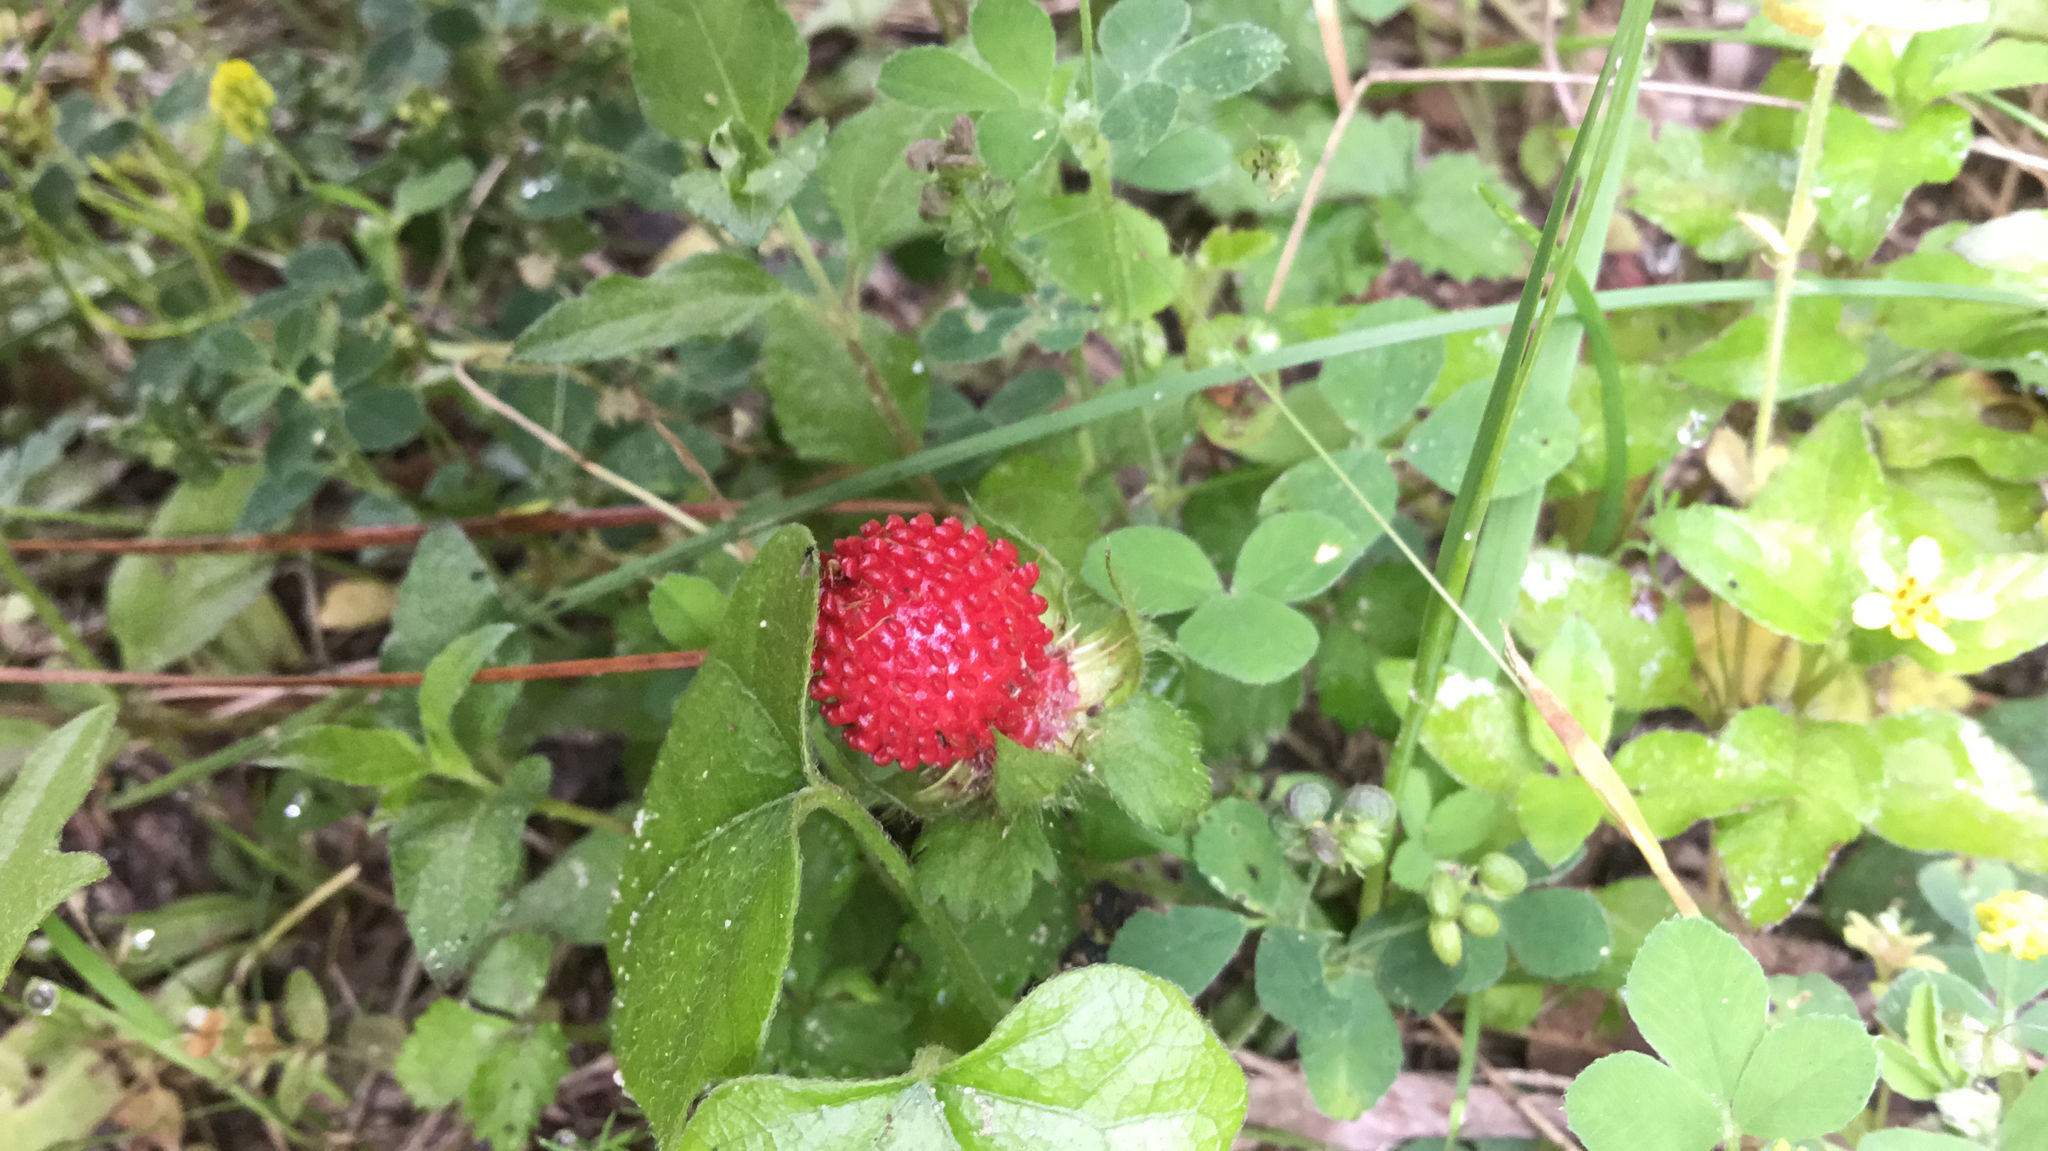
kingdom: Plantae
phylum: Tracheophyta
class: Magnoliopsida
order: Rosales
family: Rosaceae
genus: Potentilla
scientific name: Potentilla indica
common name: Yellow-flowered strawberry
